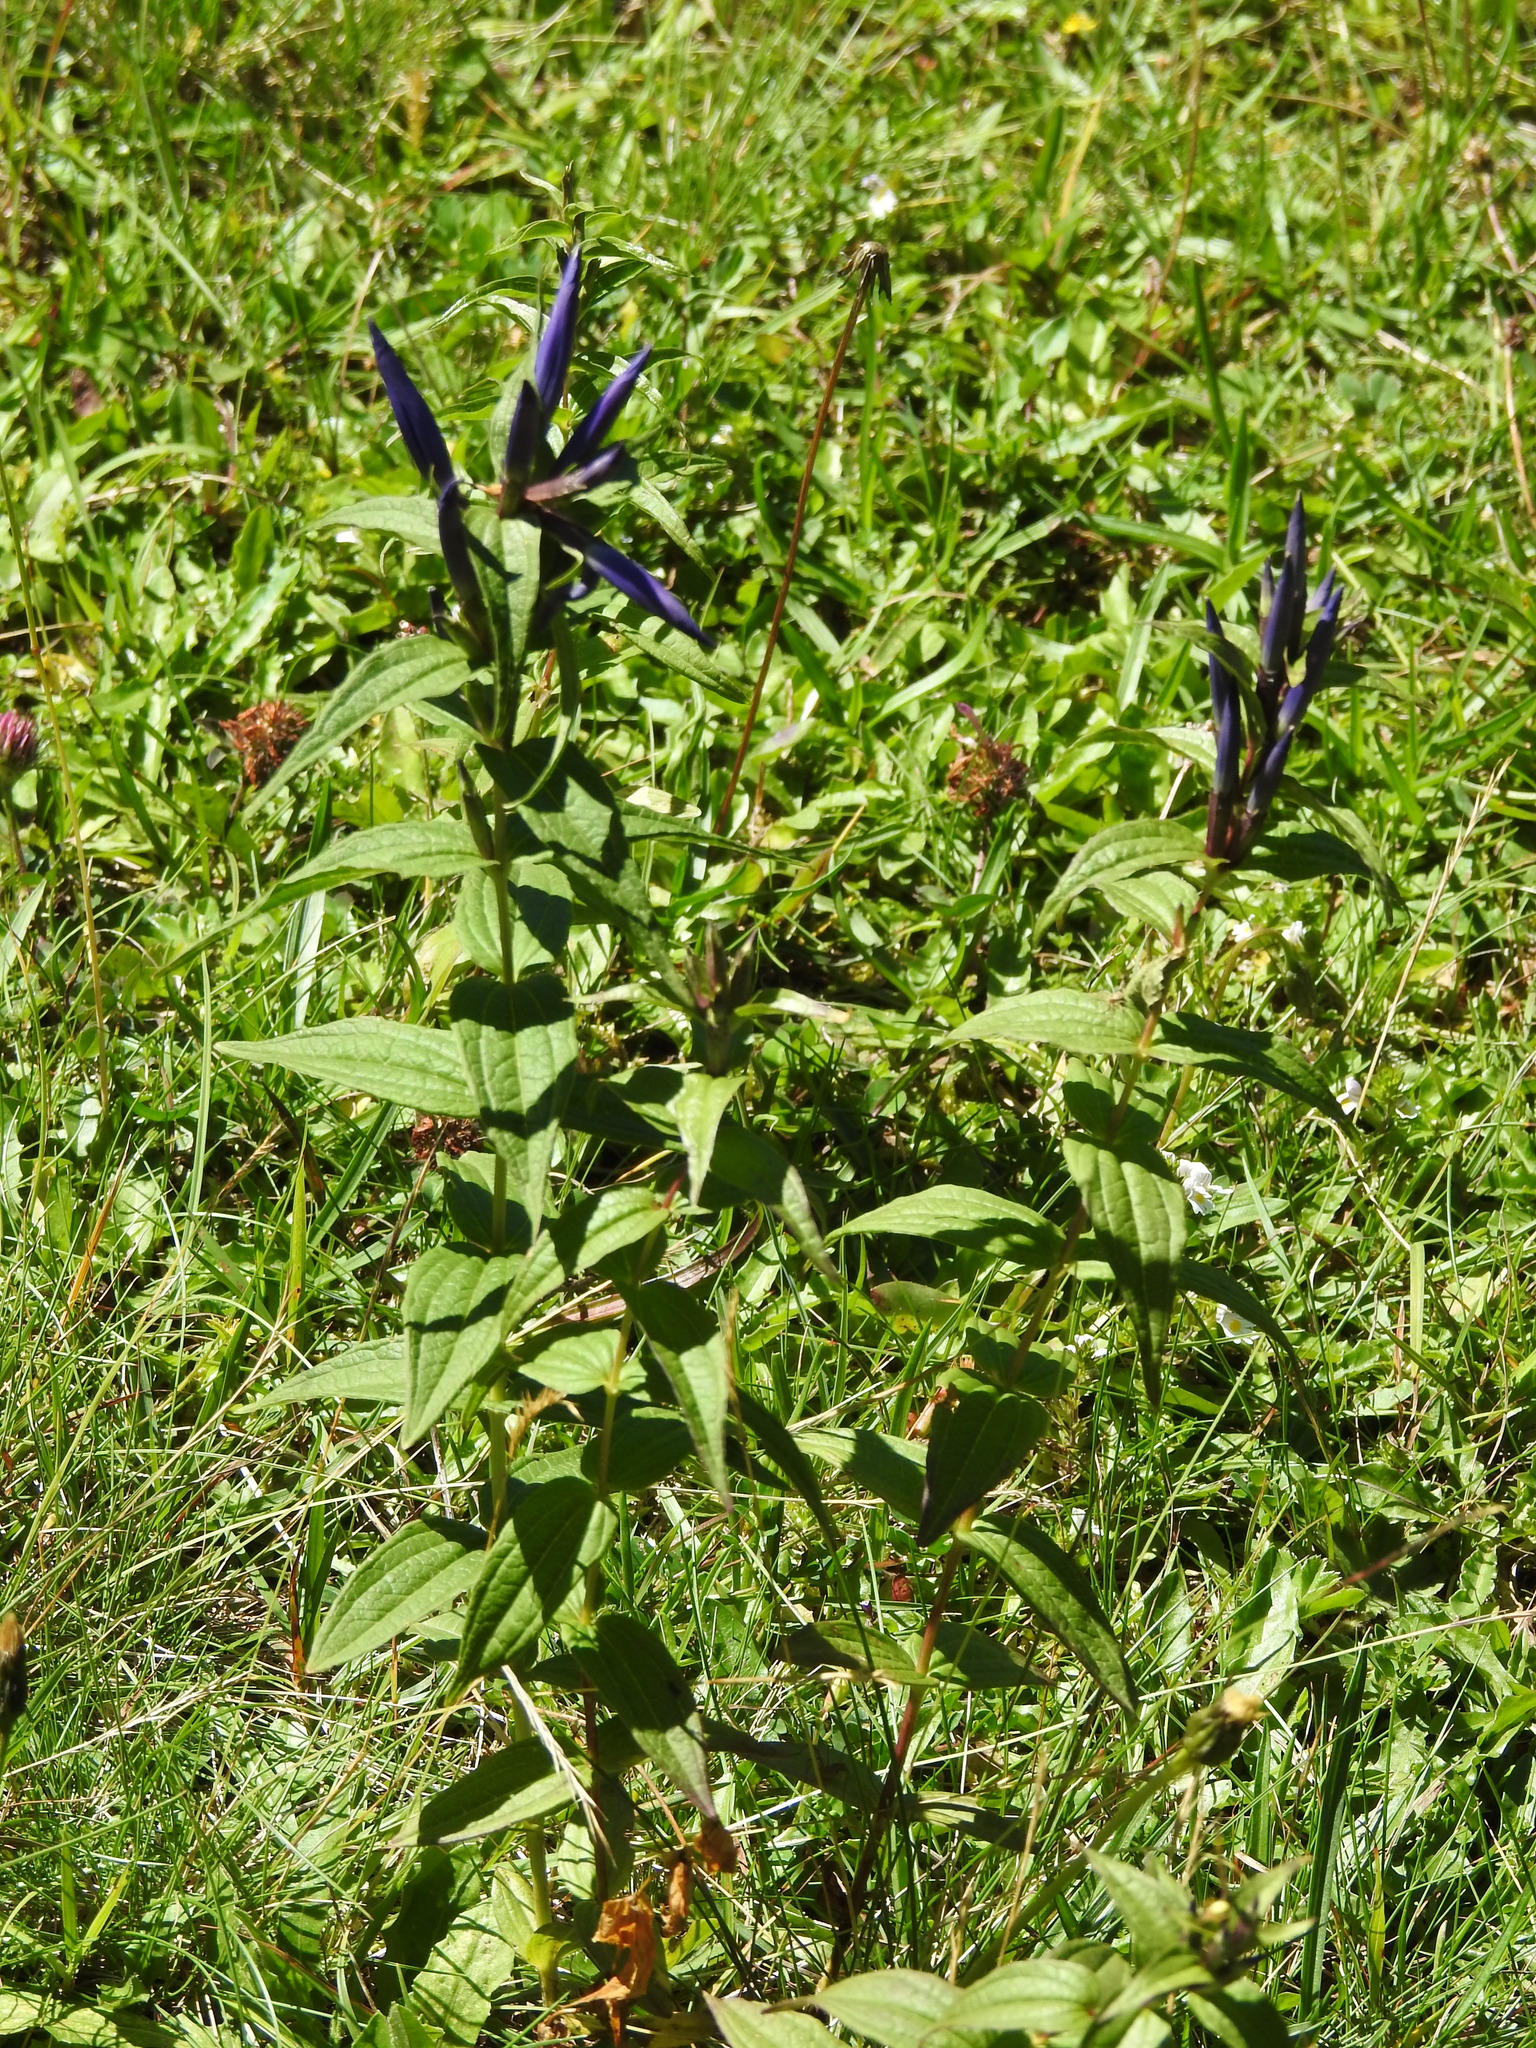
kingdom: Plantae
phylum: Tracheophyta
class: Magnoliopsida
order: Gentianales
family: Gentianaceae
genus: Gentiana
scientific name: Gentiana asclepiadea
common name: Willow gentian
